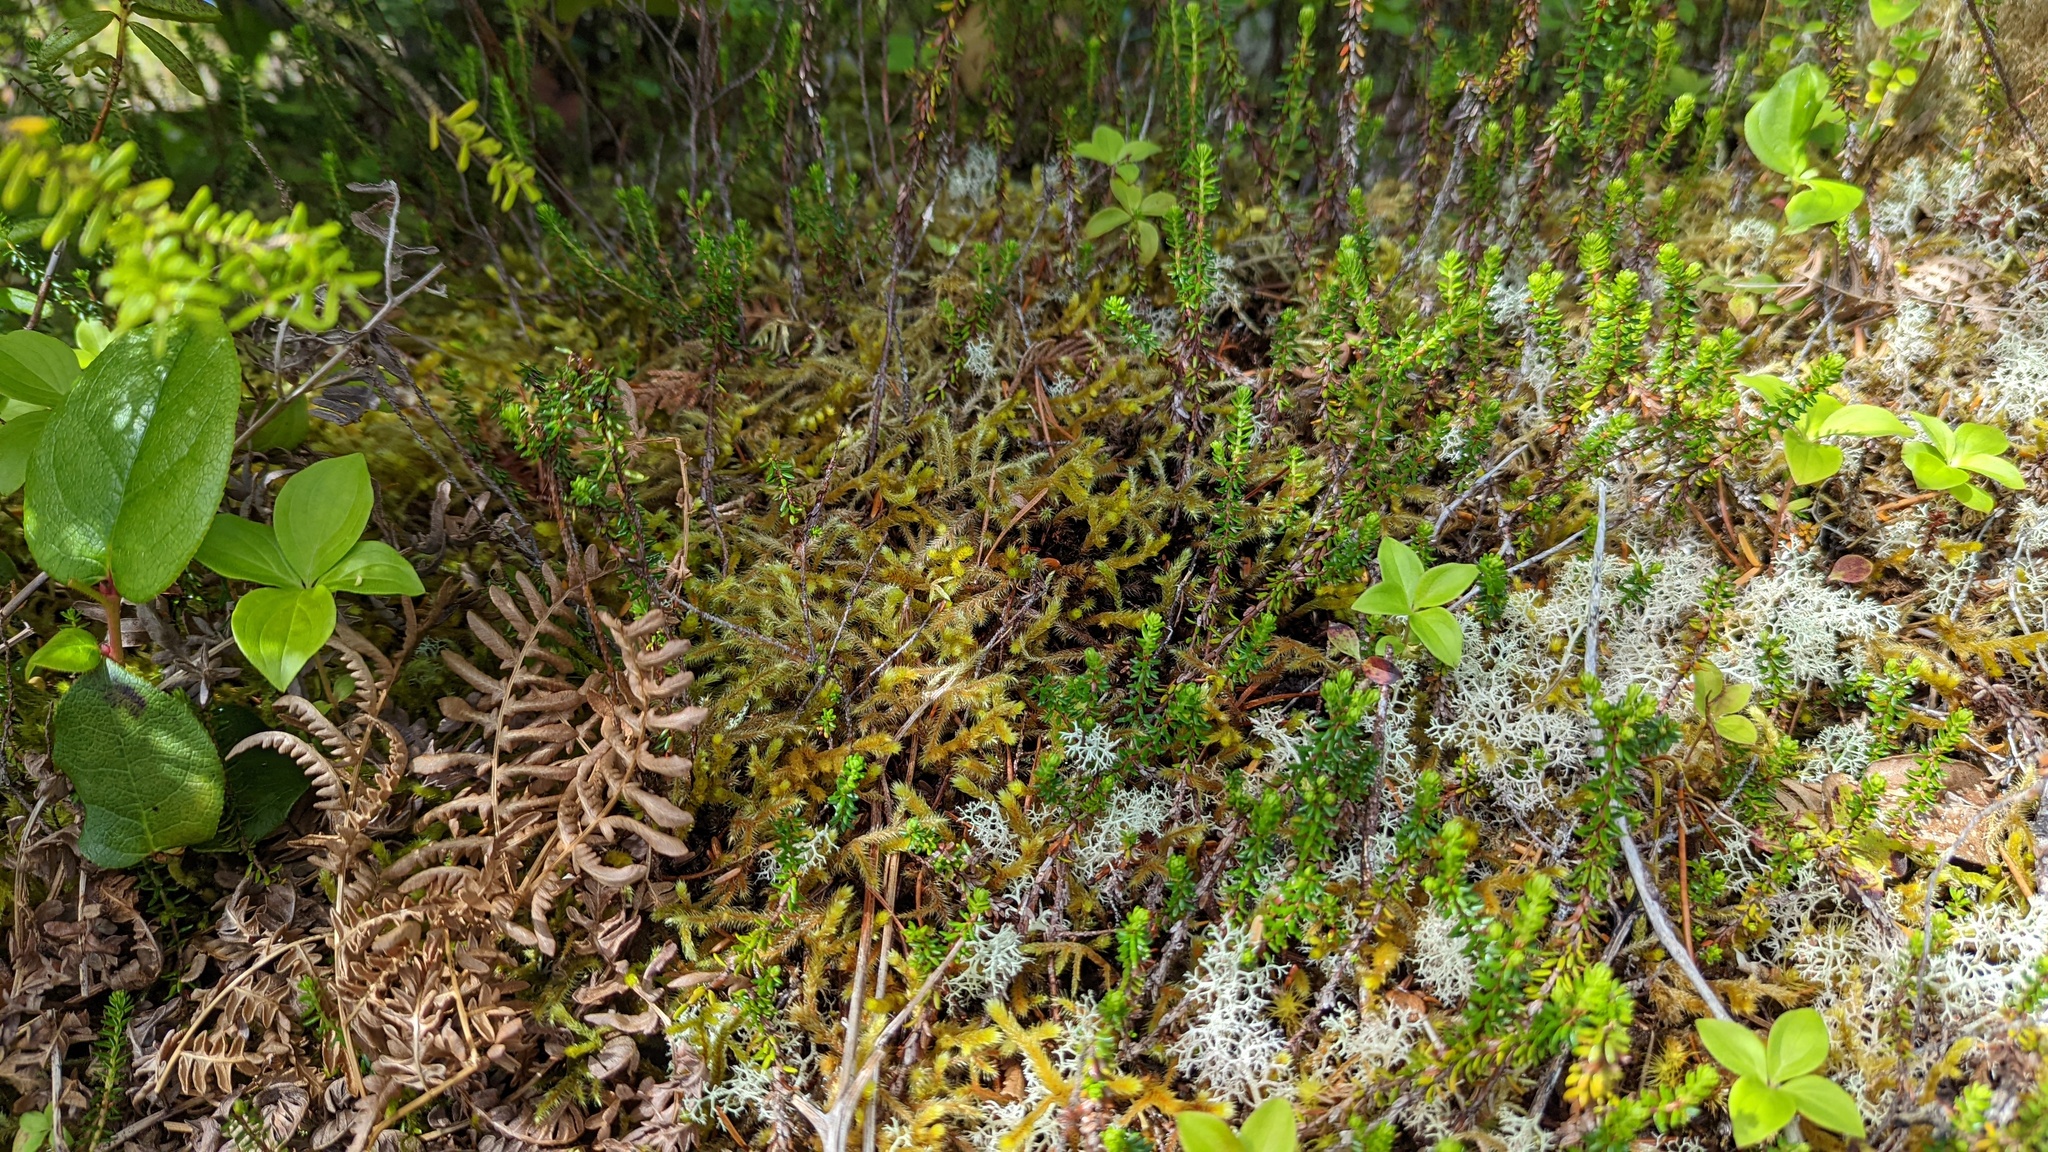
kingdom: Plantae
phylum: Bryophyta
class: Bryopsida
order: Hypnales
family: Antitrichiaceae
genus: Antitrichia
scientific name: Antitrichia curtipendula
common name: Pendulous wing-moss
